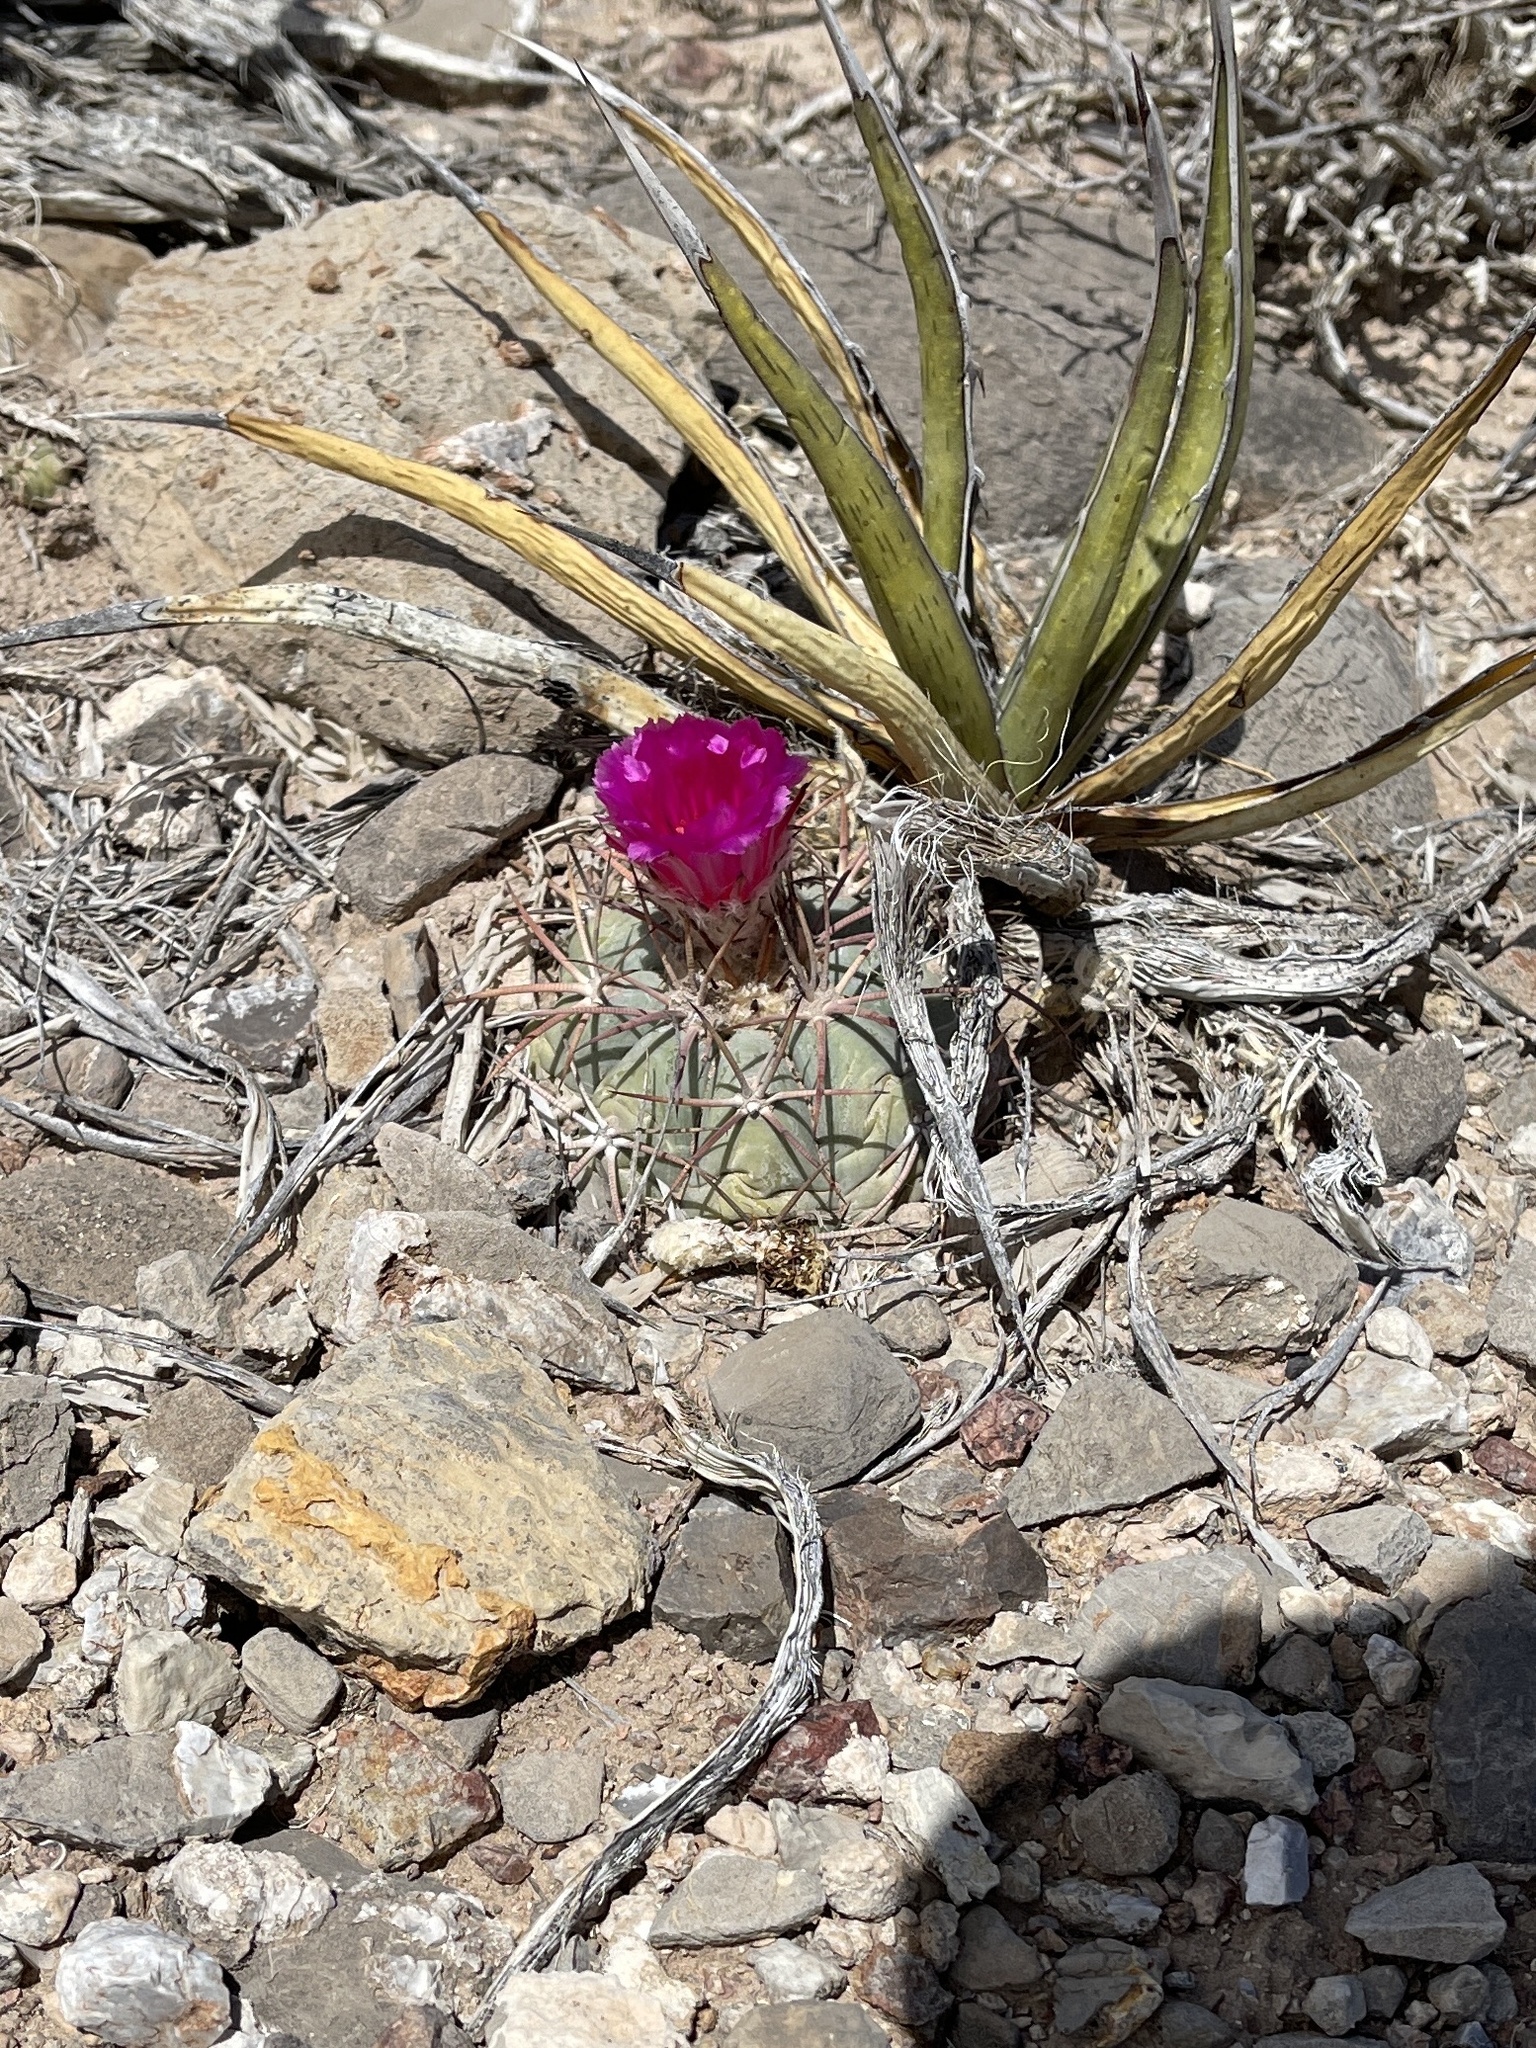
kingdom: Plantae
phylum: Tracheophyta
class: Magnoliopsida
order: Caryophyllales
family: Cactaceae
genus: Echinocactus
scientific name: Echinocactus horizonthalonius
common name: Devilshead
